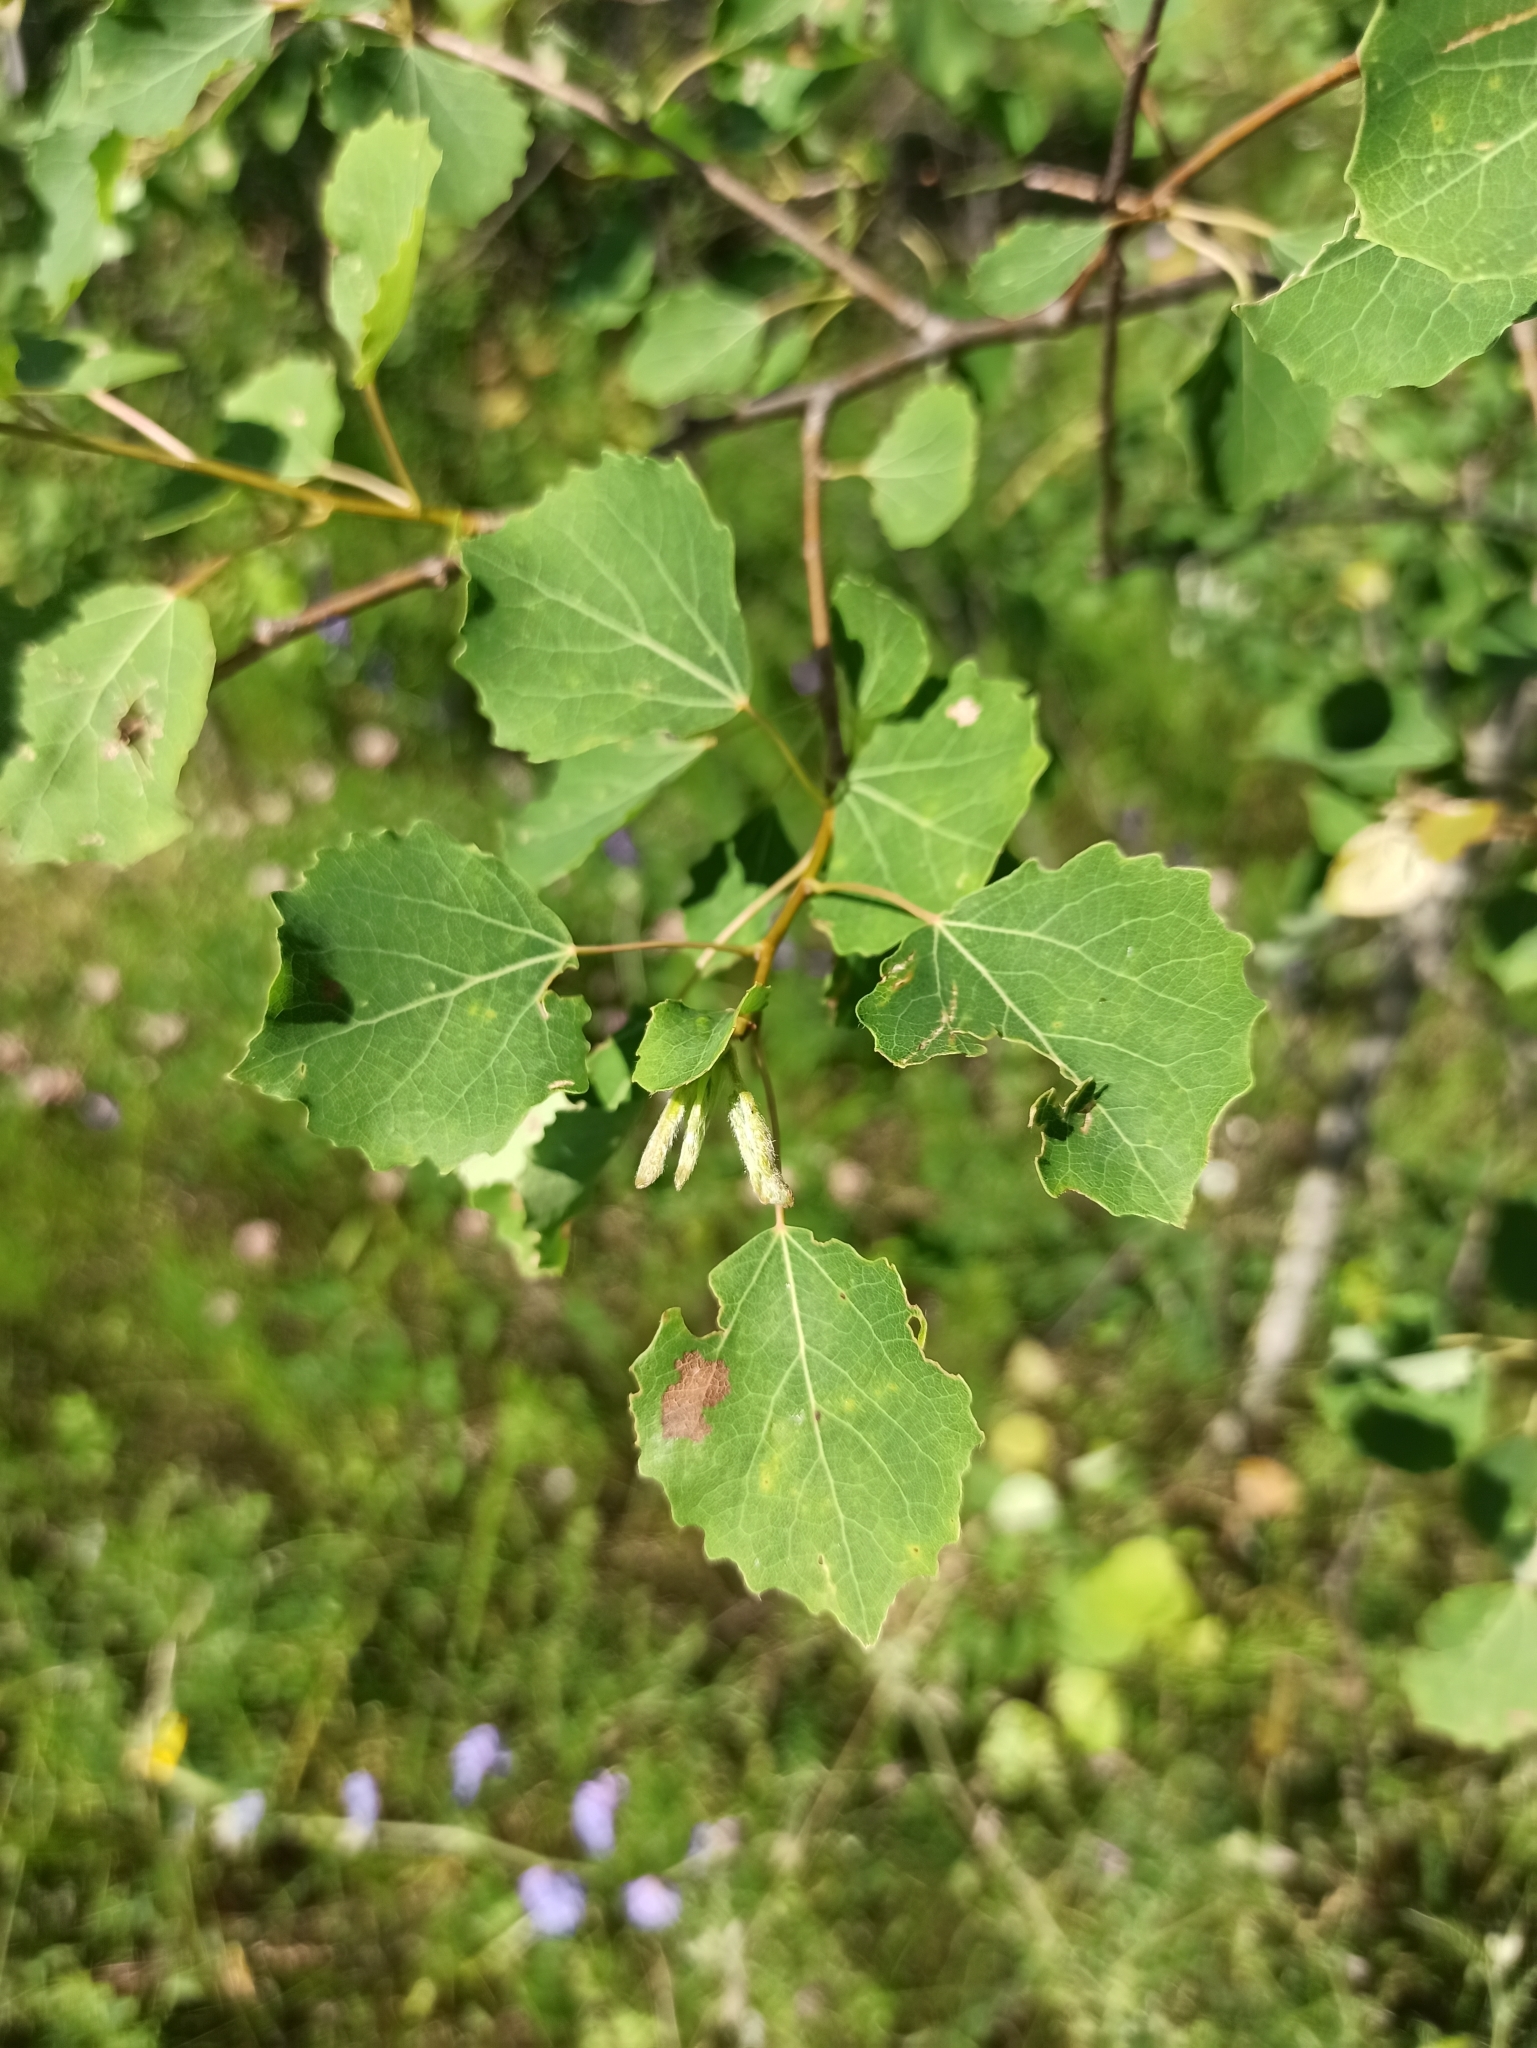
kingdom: Plantae
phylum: Tracheophyta
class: Magnoliopsida
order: Malpighiales
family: Salicaceae
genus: Populus
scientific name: Populus tremula
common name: European aspen
